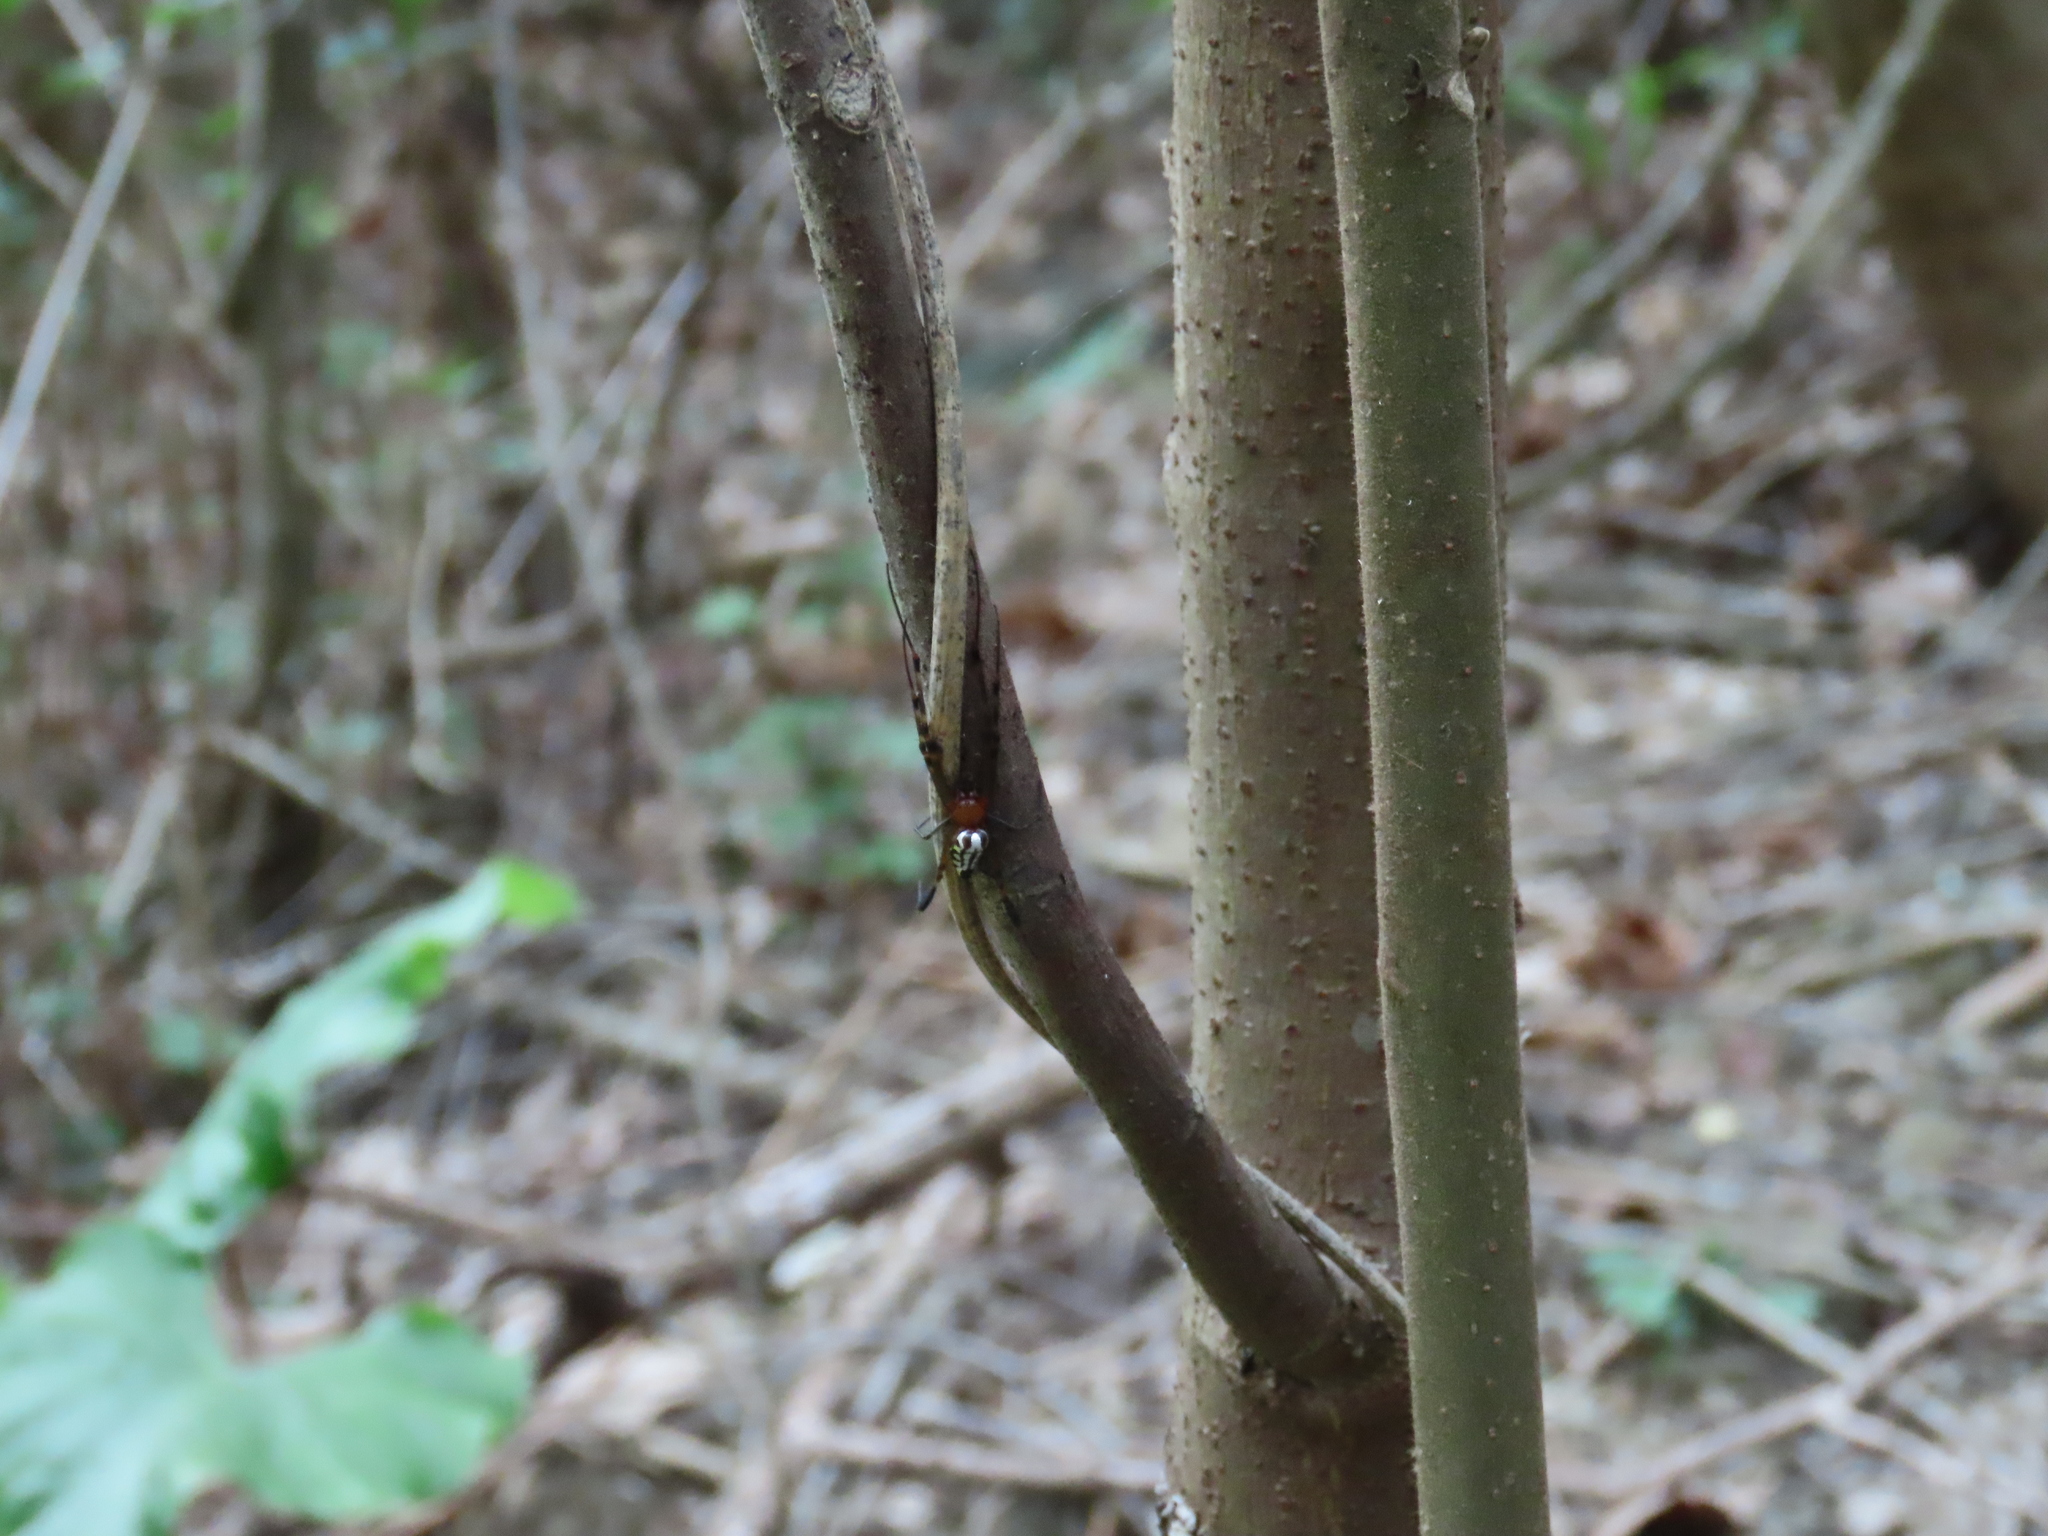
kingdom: Animalia
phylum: Arthropoda
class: Arachnida
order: Araneae
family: Tetragnathidae
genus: Leucauge
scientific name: Leucauge tessellata
